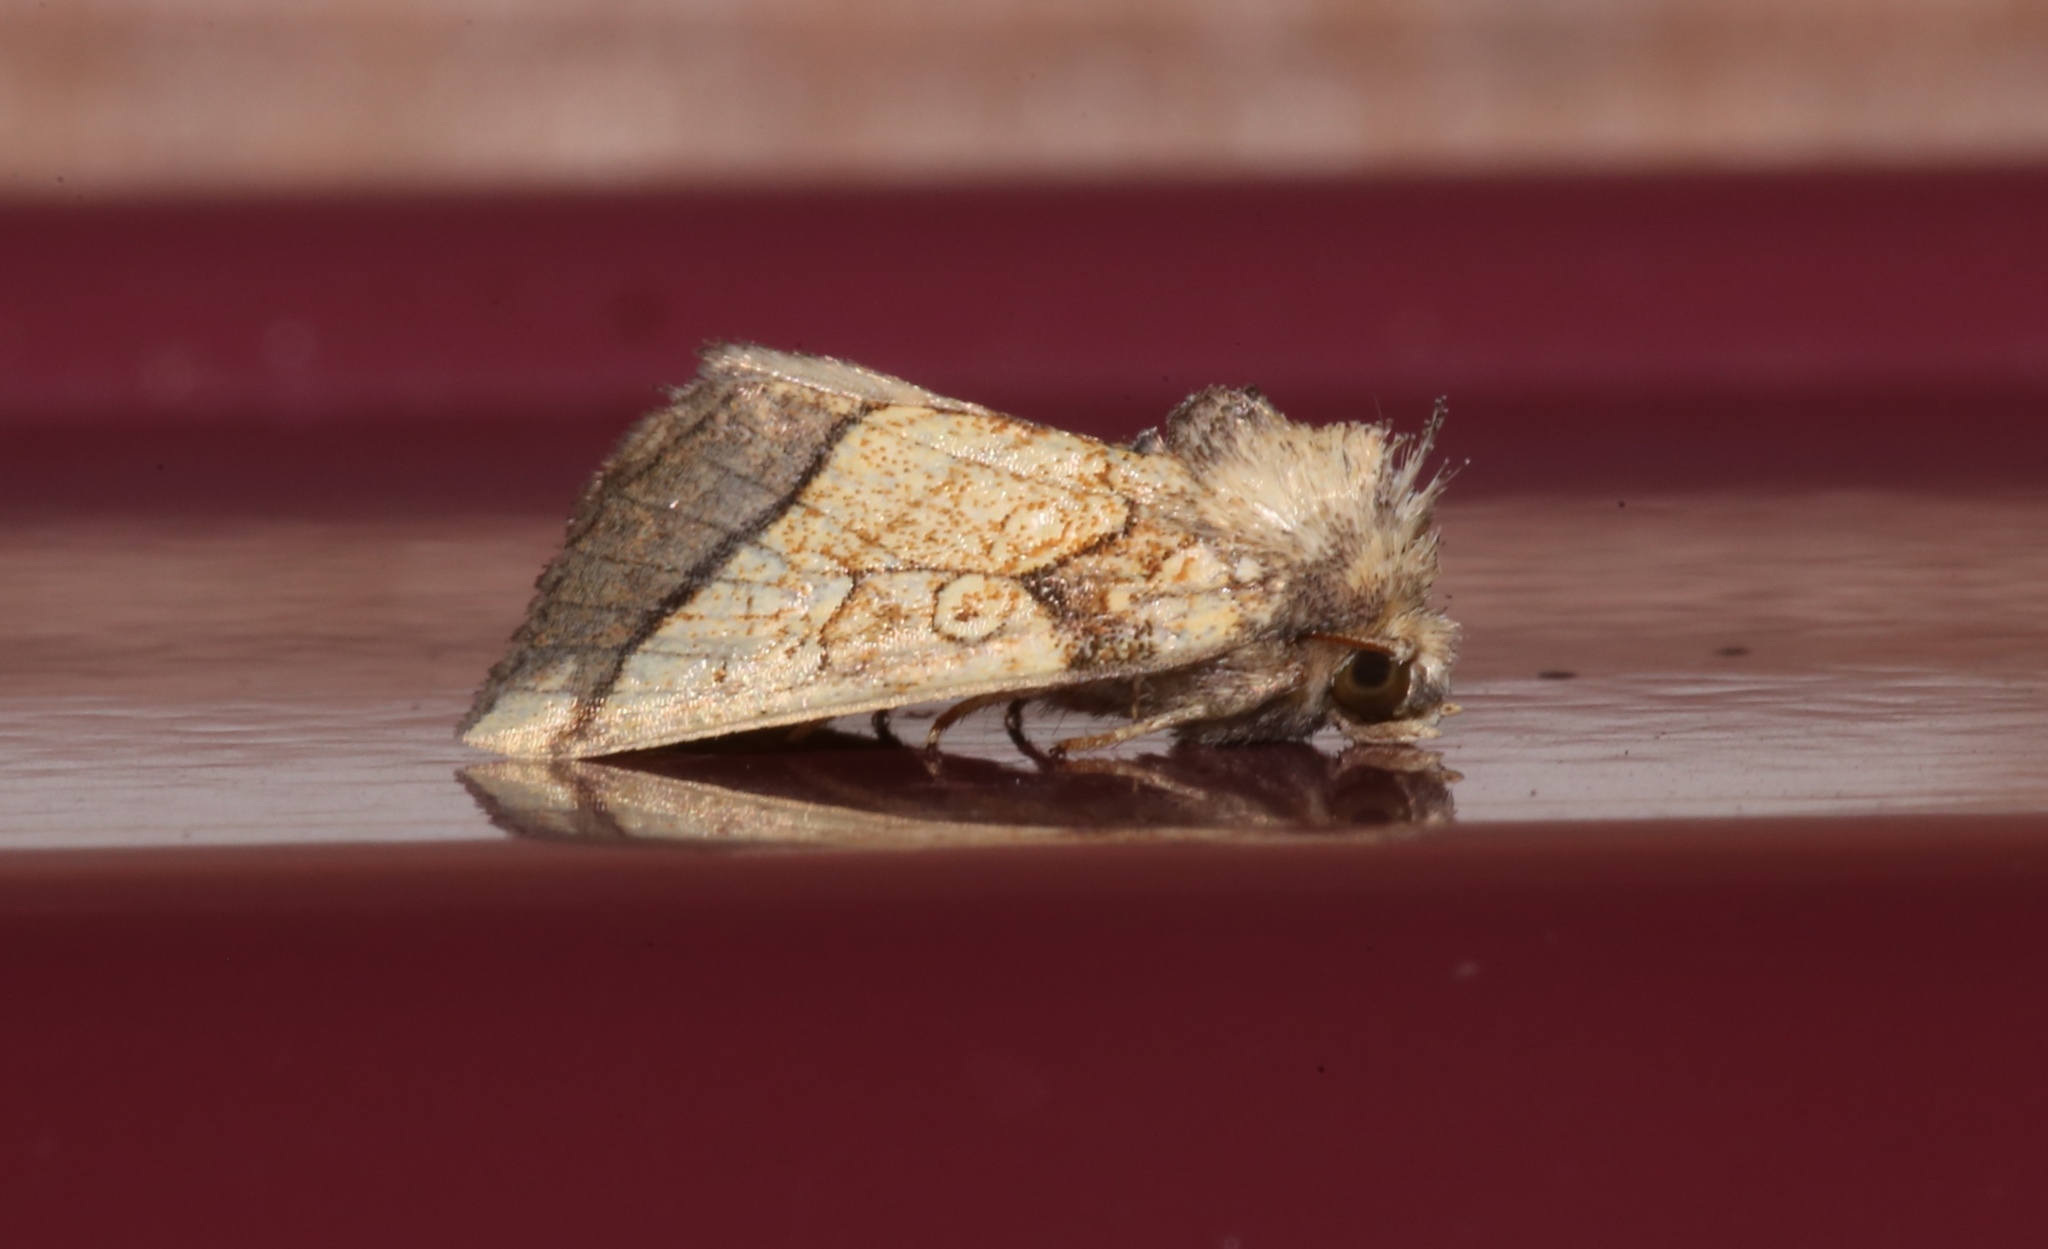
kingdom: Animalia
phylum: Arthropoda
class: Insecta
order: Lepidoptera
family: Noctuidae
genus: Papaipema
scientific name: Papaipema rigida
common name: Rigid sunflower borer moth
